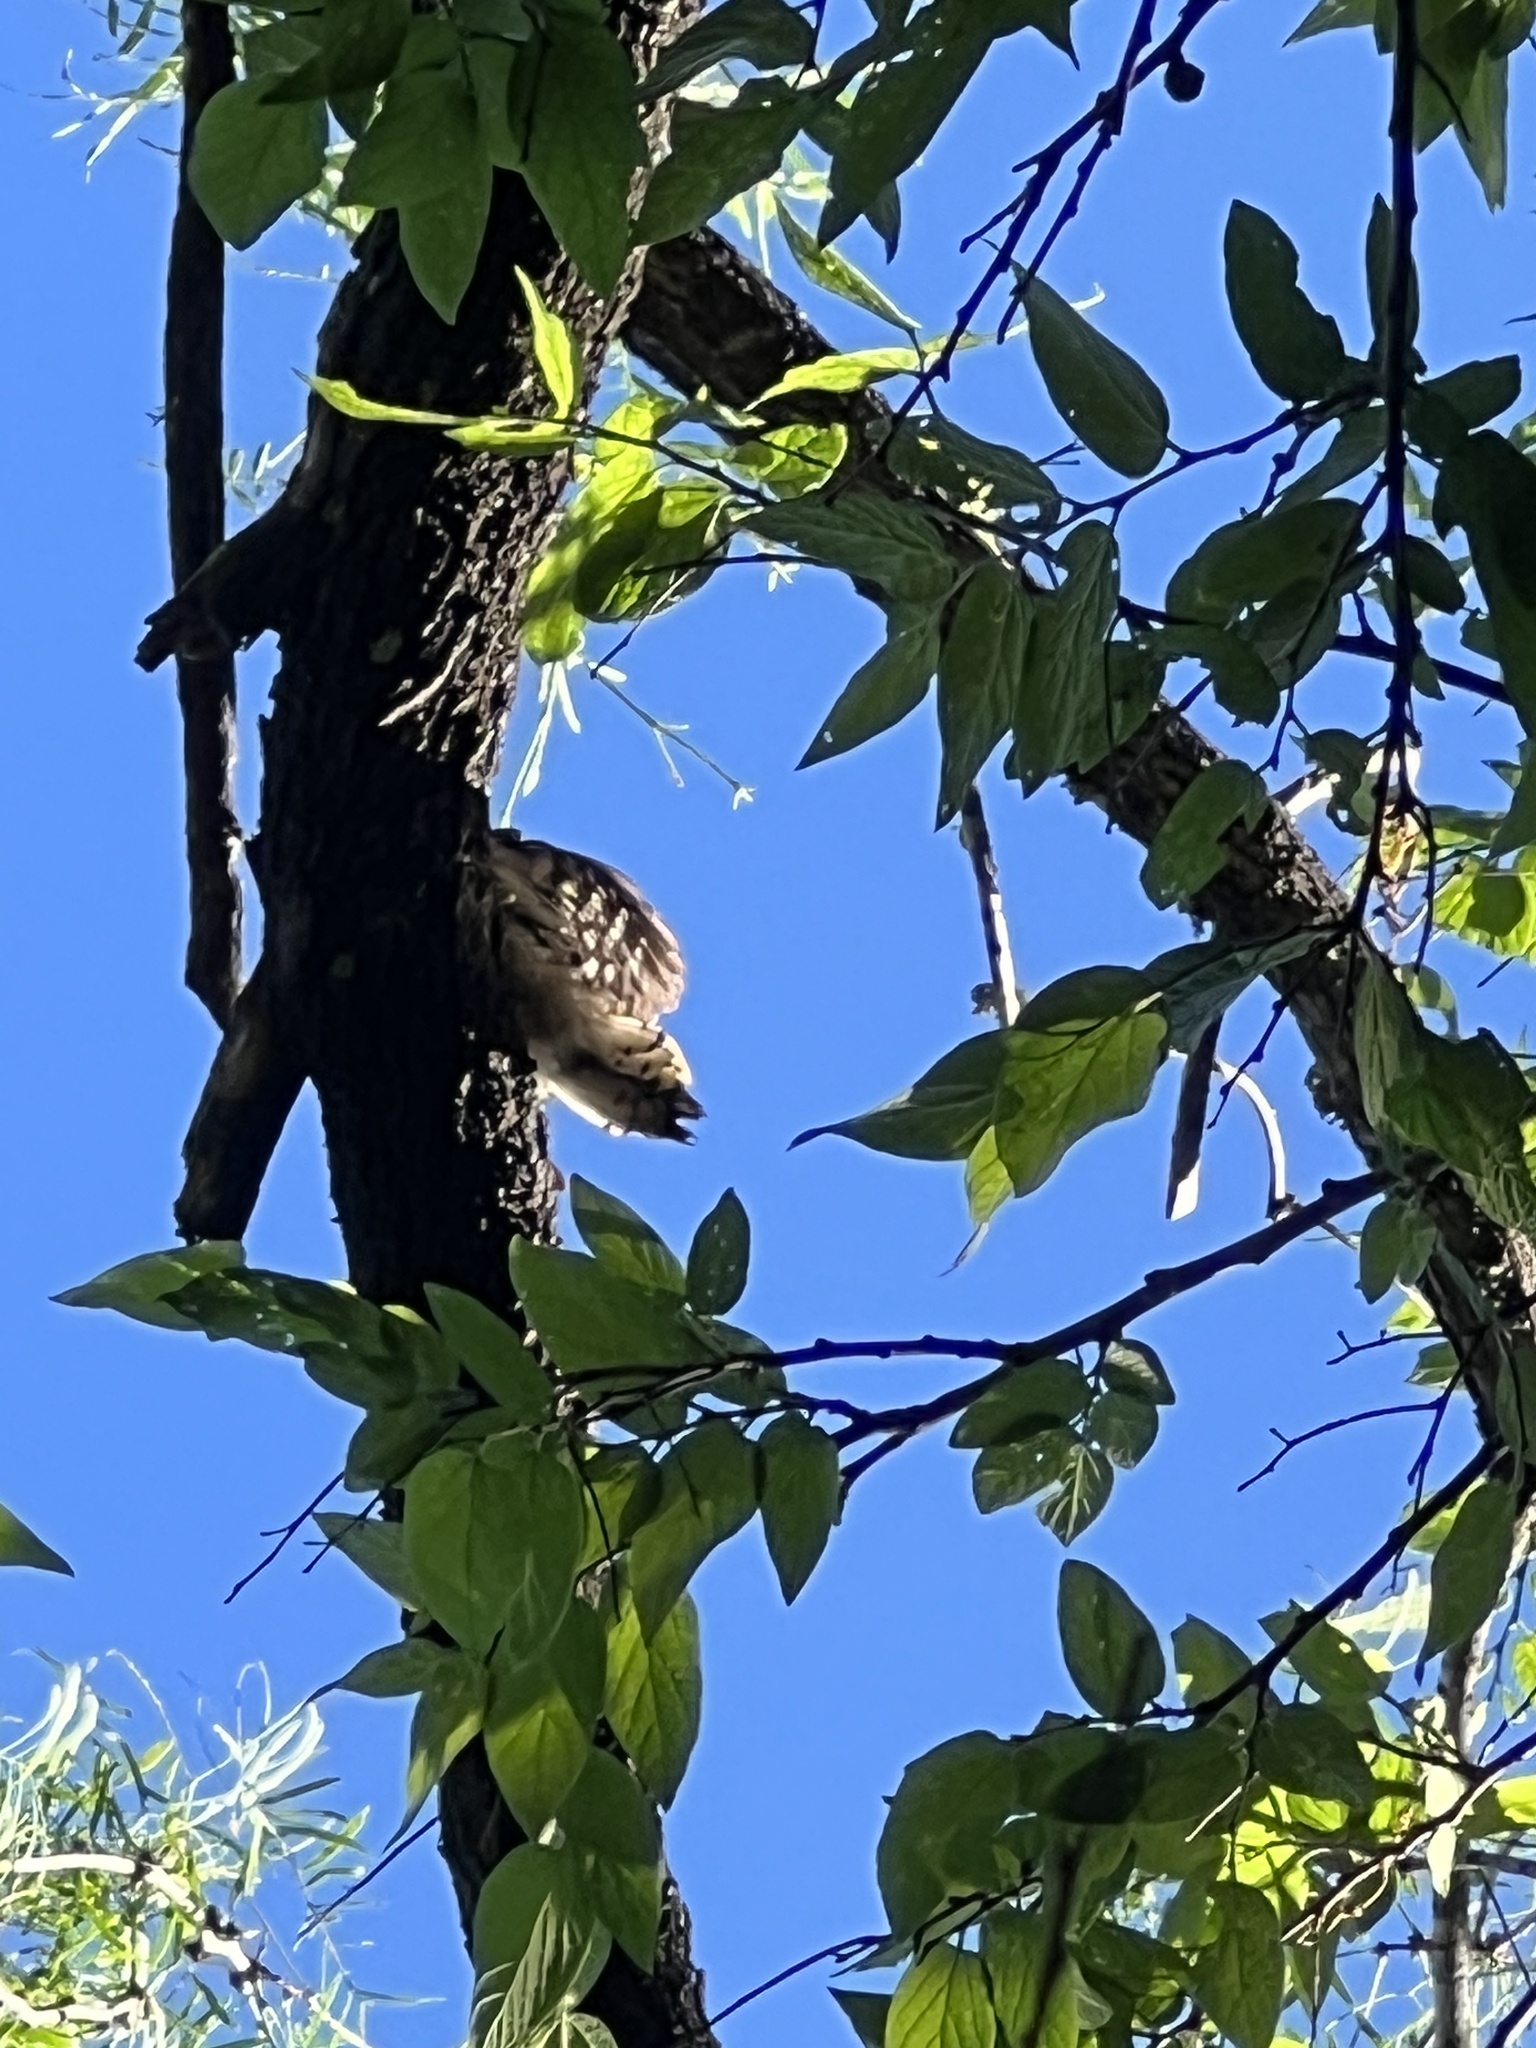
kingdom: Animalia
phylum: Chordata
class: Aves
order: Piciformes
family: Picidae
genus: Dryobates
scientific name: Dryobates pubescens
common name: Downy woodpecker
